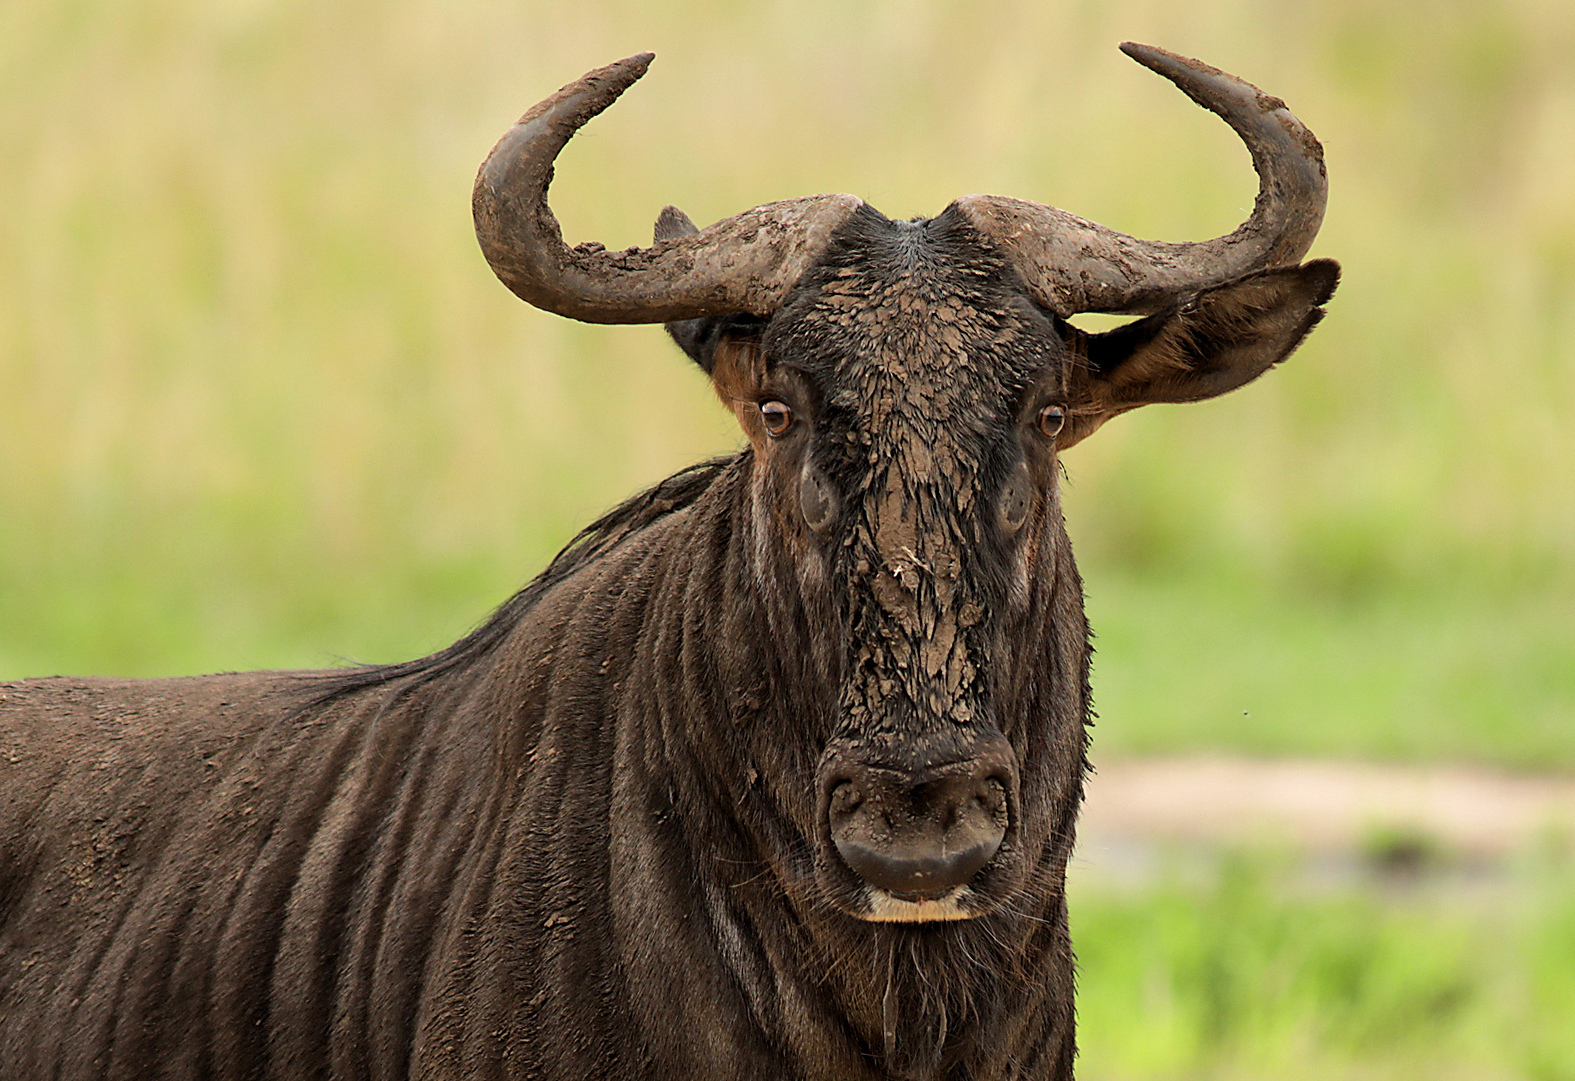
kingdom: Animalia
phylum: Chordata
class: Mammalia
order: Artiodactyla
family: Bovidae
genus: Connochaetes
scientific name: Connochaetes taurinus
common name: Blue wildebeest
